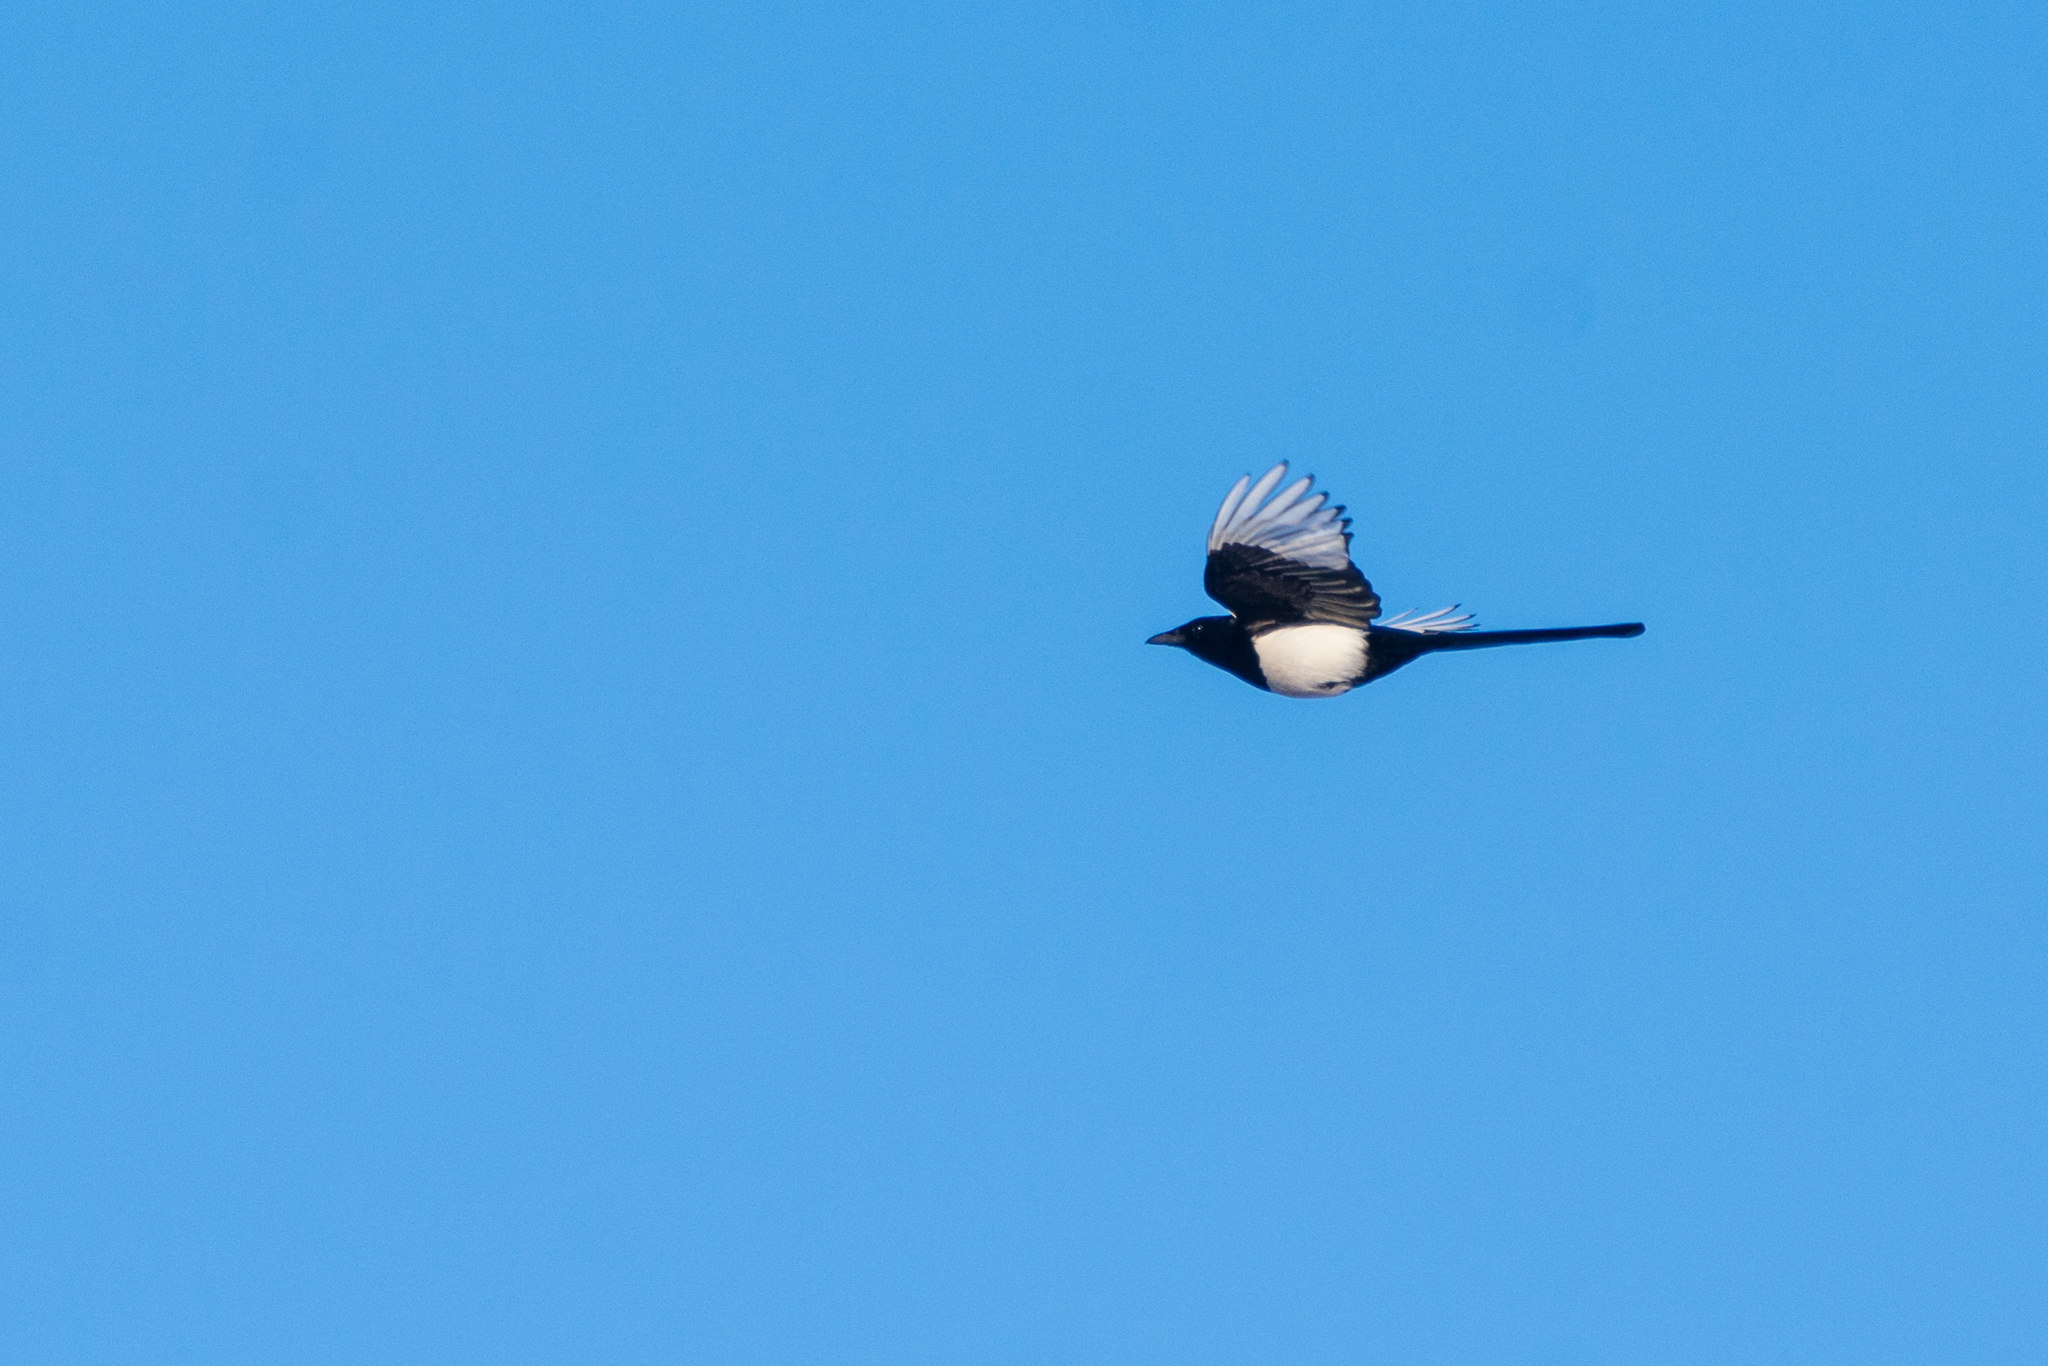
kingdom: Animalia
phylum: Chordata
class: Aves
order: Passeriformes
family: Corvidae
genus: Pica
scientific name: Pica pica
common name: Eurasian magpie
